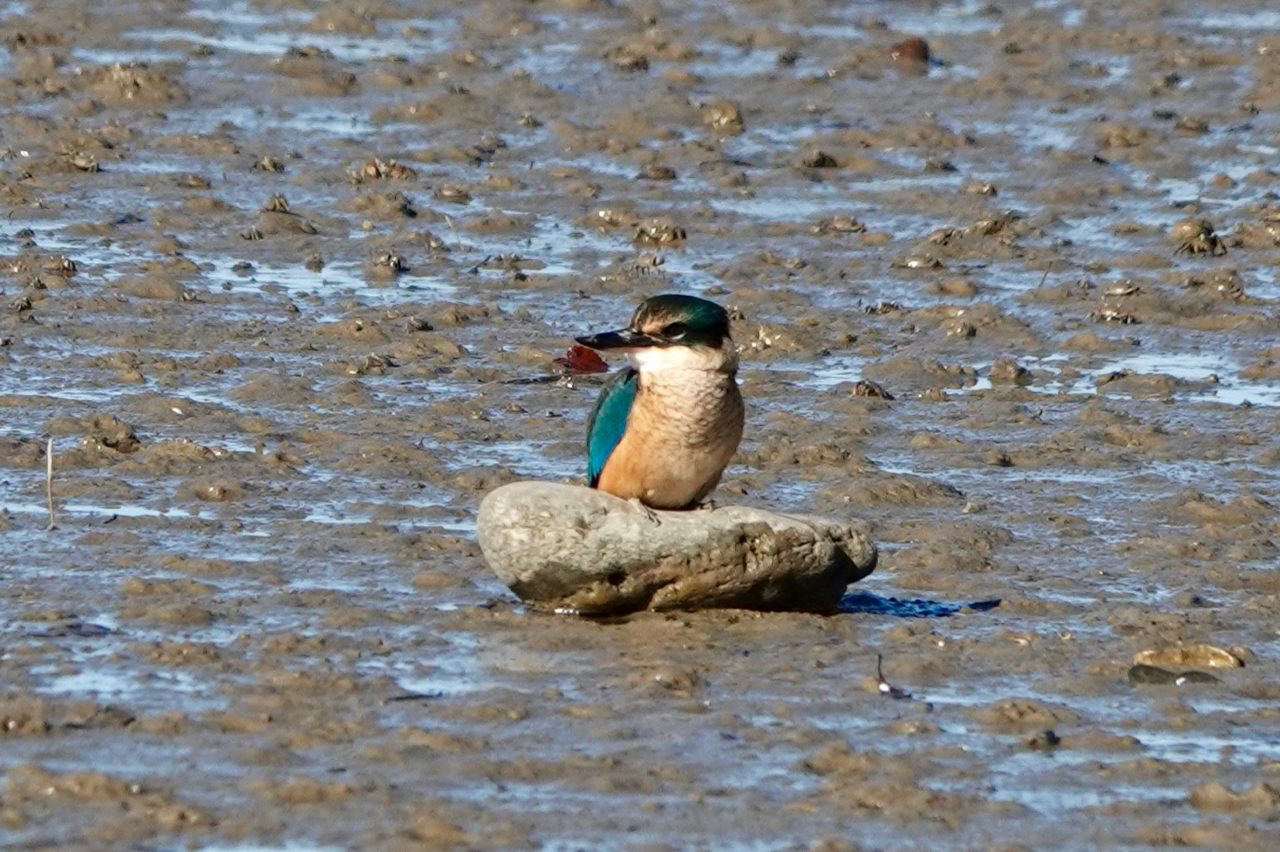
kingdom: Animalia
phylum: Chordata
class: Aves
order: Coraciiformes
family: Alcedinidae
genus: Todiramphus
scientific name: Todiramphus sanctus
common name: Sacred kingfisher
